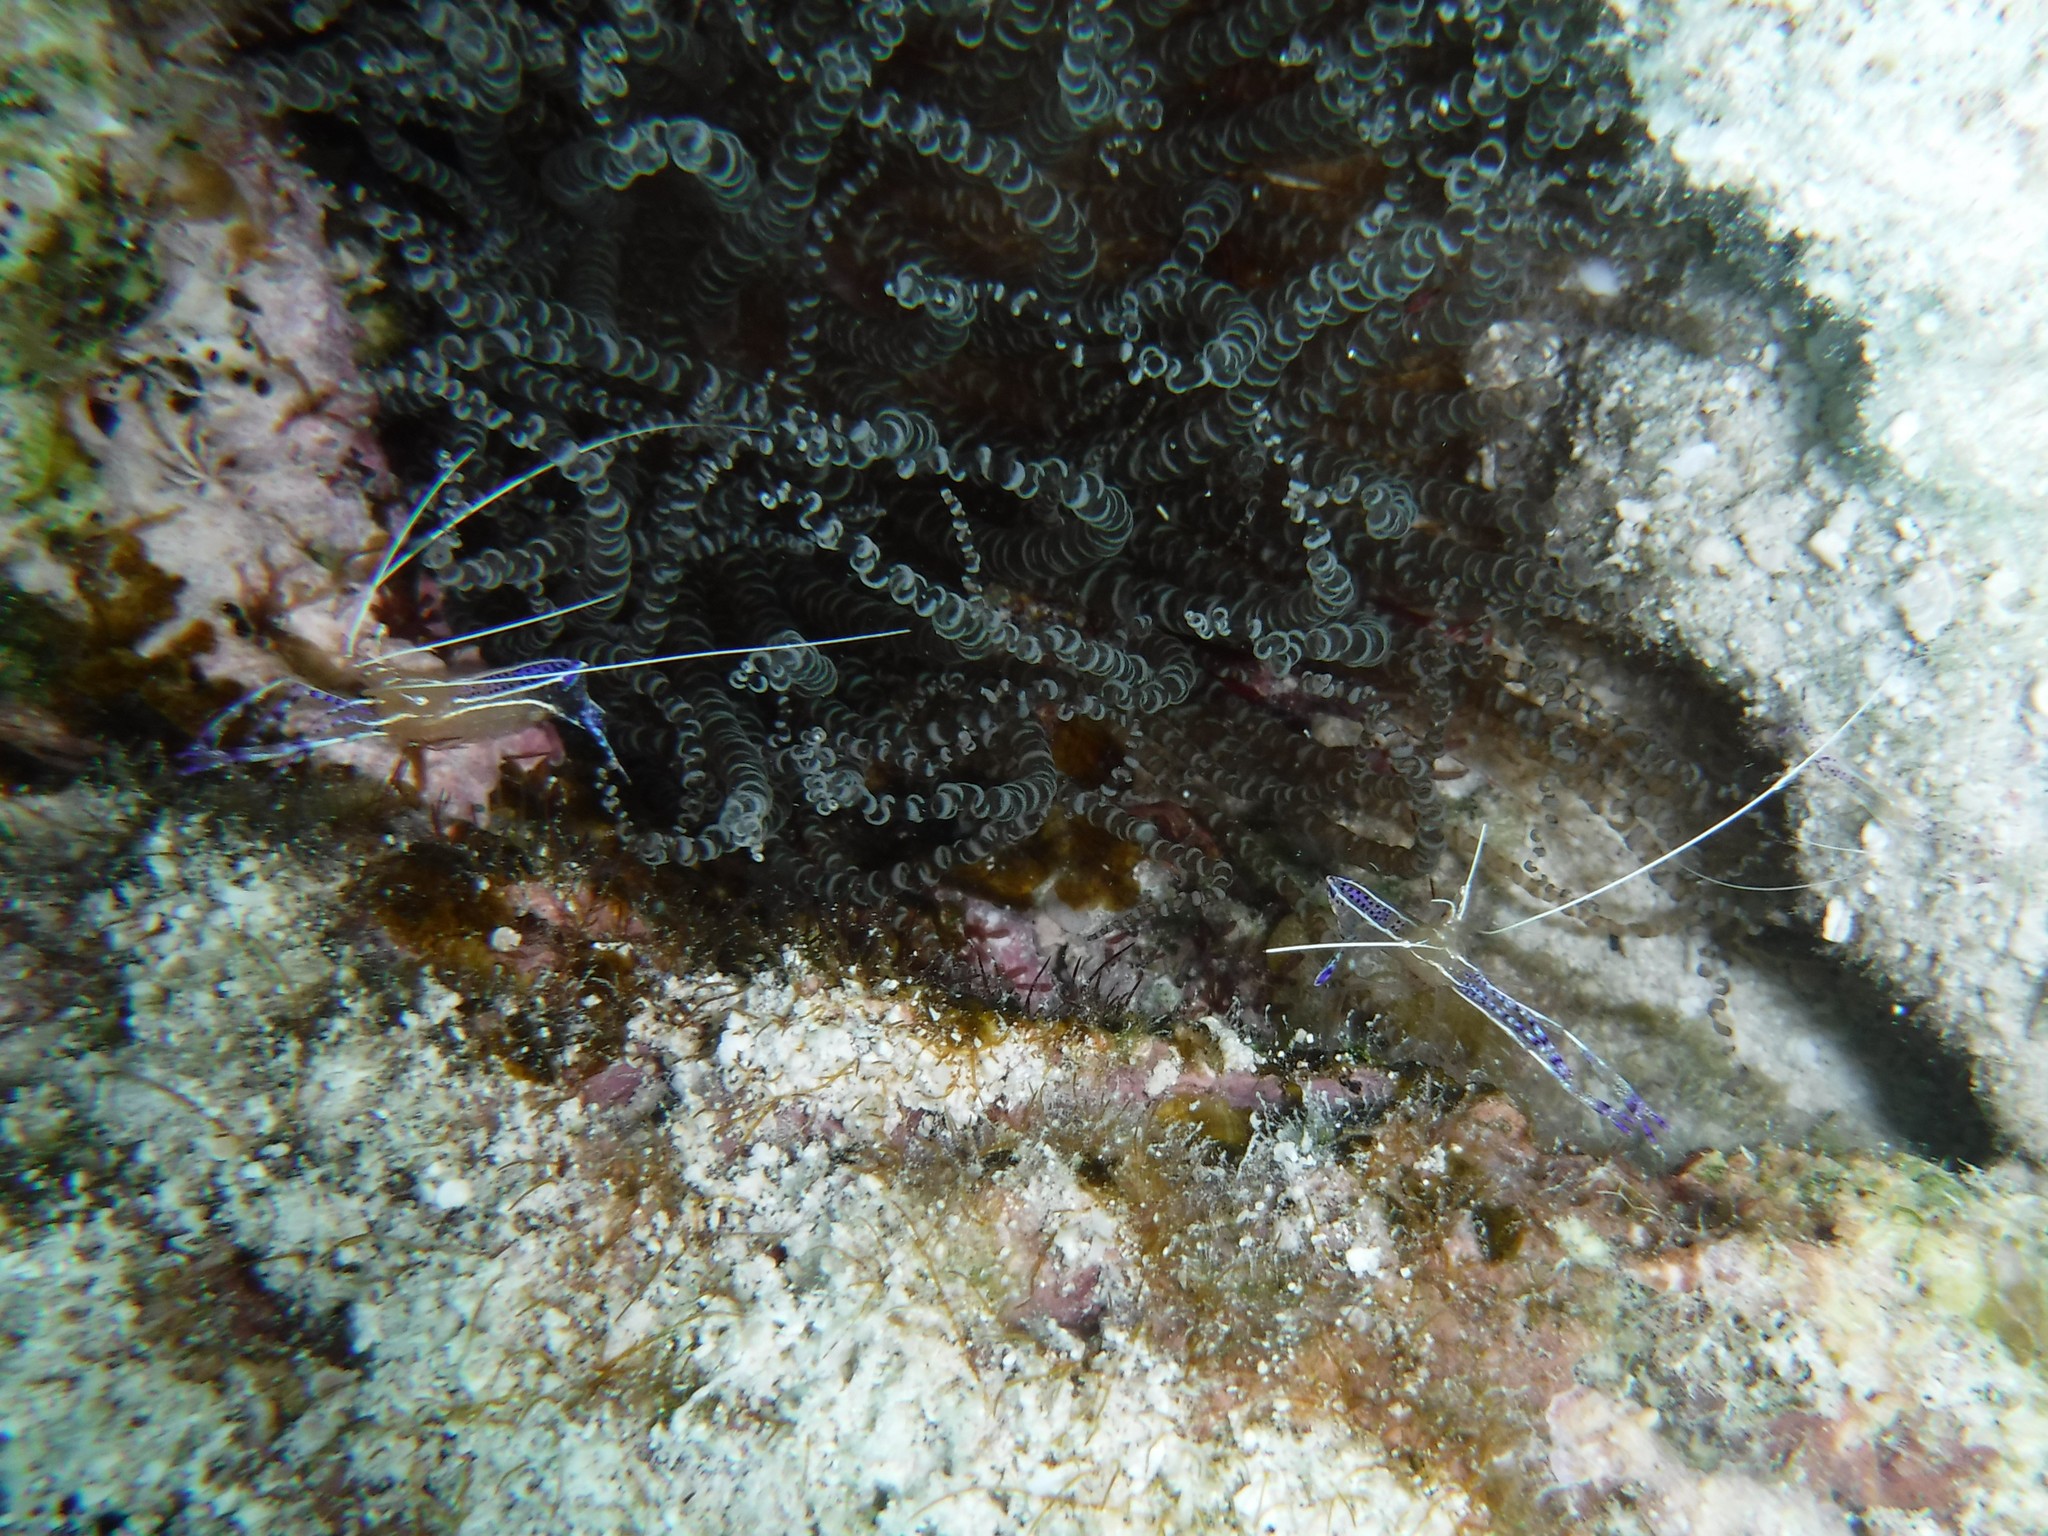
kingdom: Animalia
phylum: Arthropoda
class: Malacostraca
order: Decapoda
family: Palaemonidae
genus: Ancylomenes
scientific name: Ancylomenes pedersoni
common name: Pederson's cleaning shrimp
